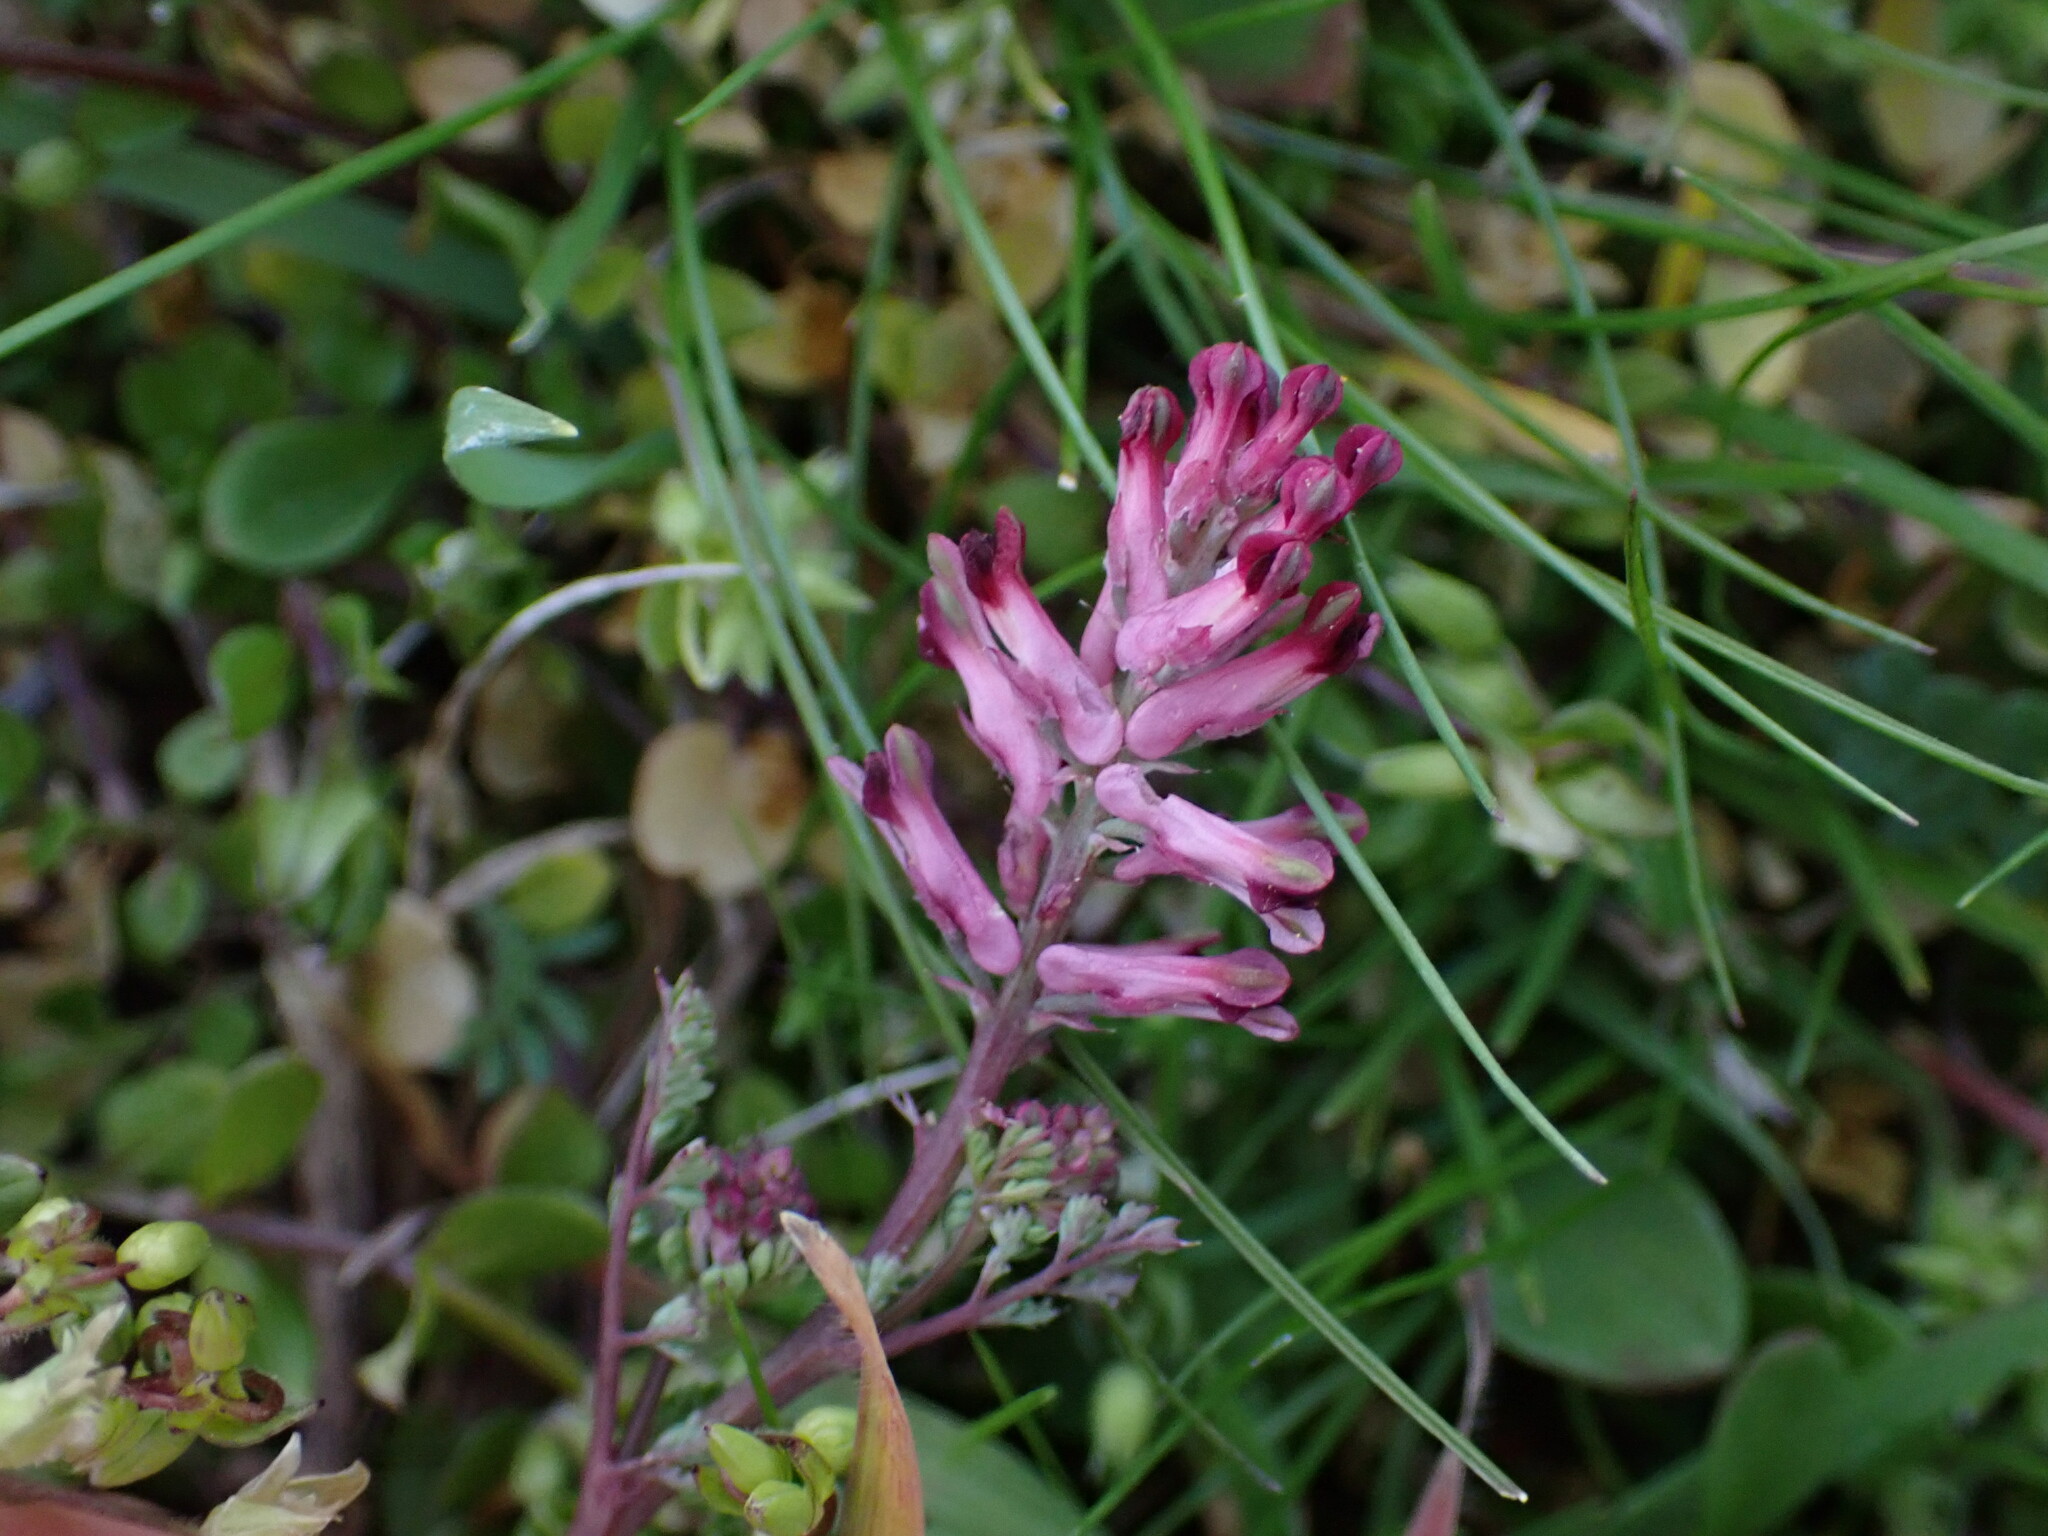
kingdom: Plantae
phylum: Tracheophyta
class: Magnoliopsida
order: Ranunculales
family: Papaveraceae
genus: Fumaria
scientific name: Fumaria officinalis
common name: Common fumitory
